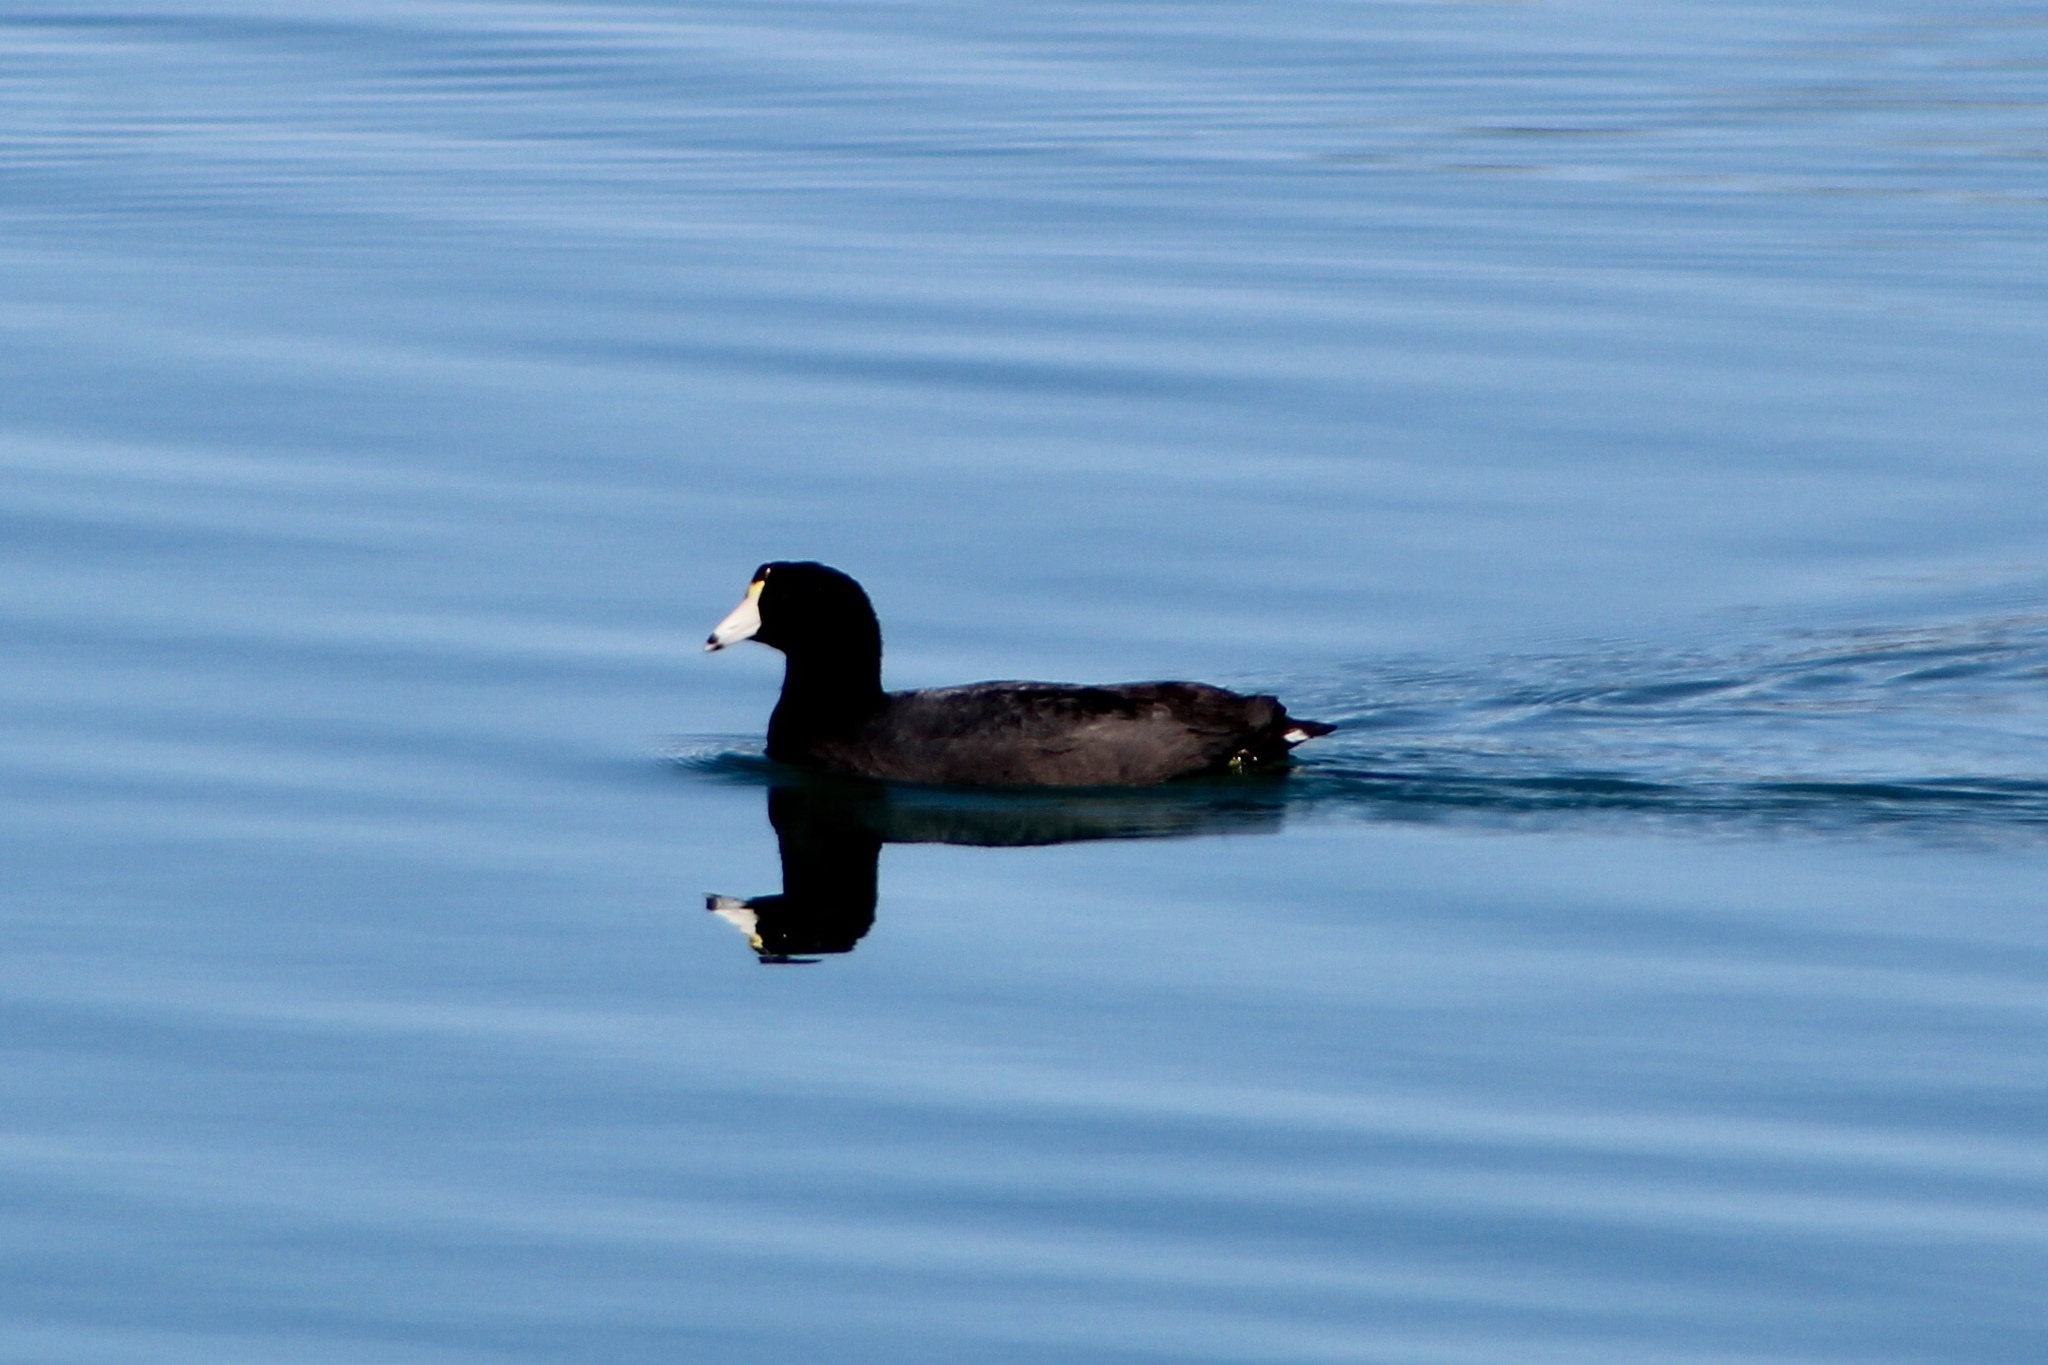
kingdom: Animalia
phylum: Chordata
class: Aves
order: Gruiformes
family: Rallidae
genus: Fulica
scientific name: Fulica americana
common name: American coot
